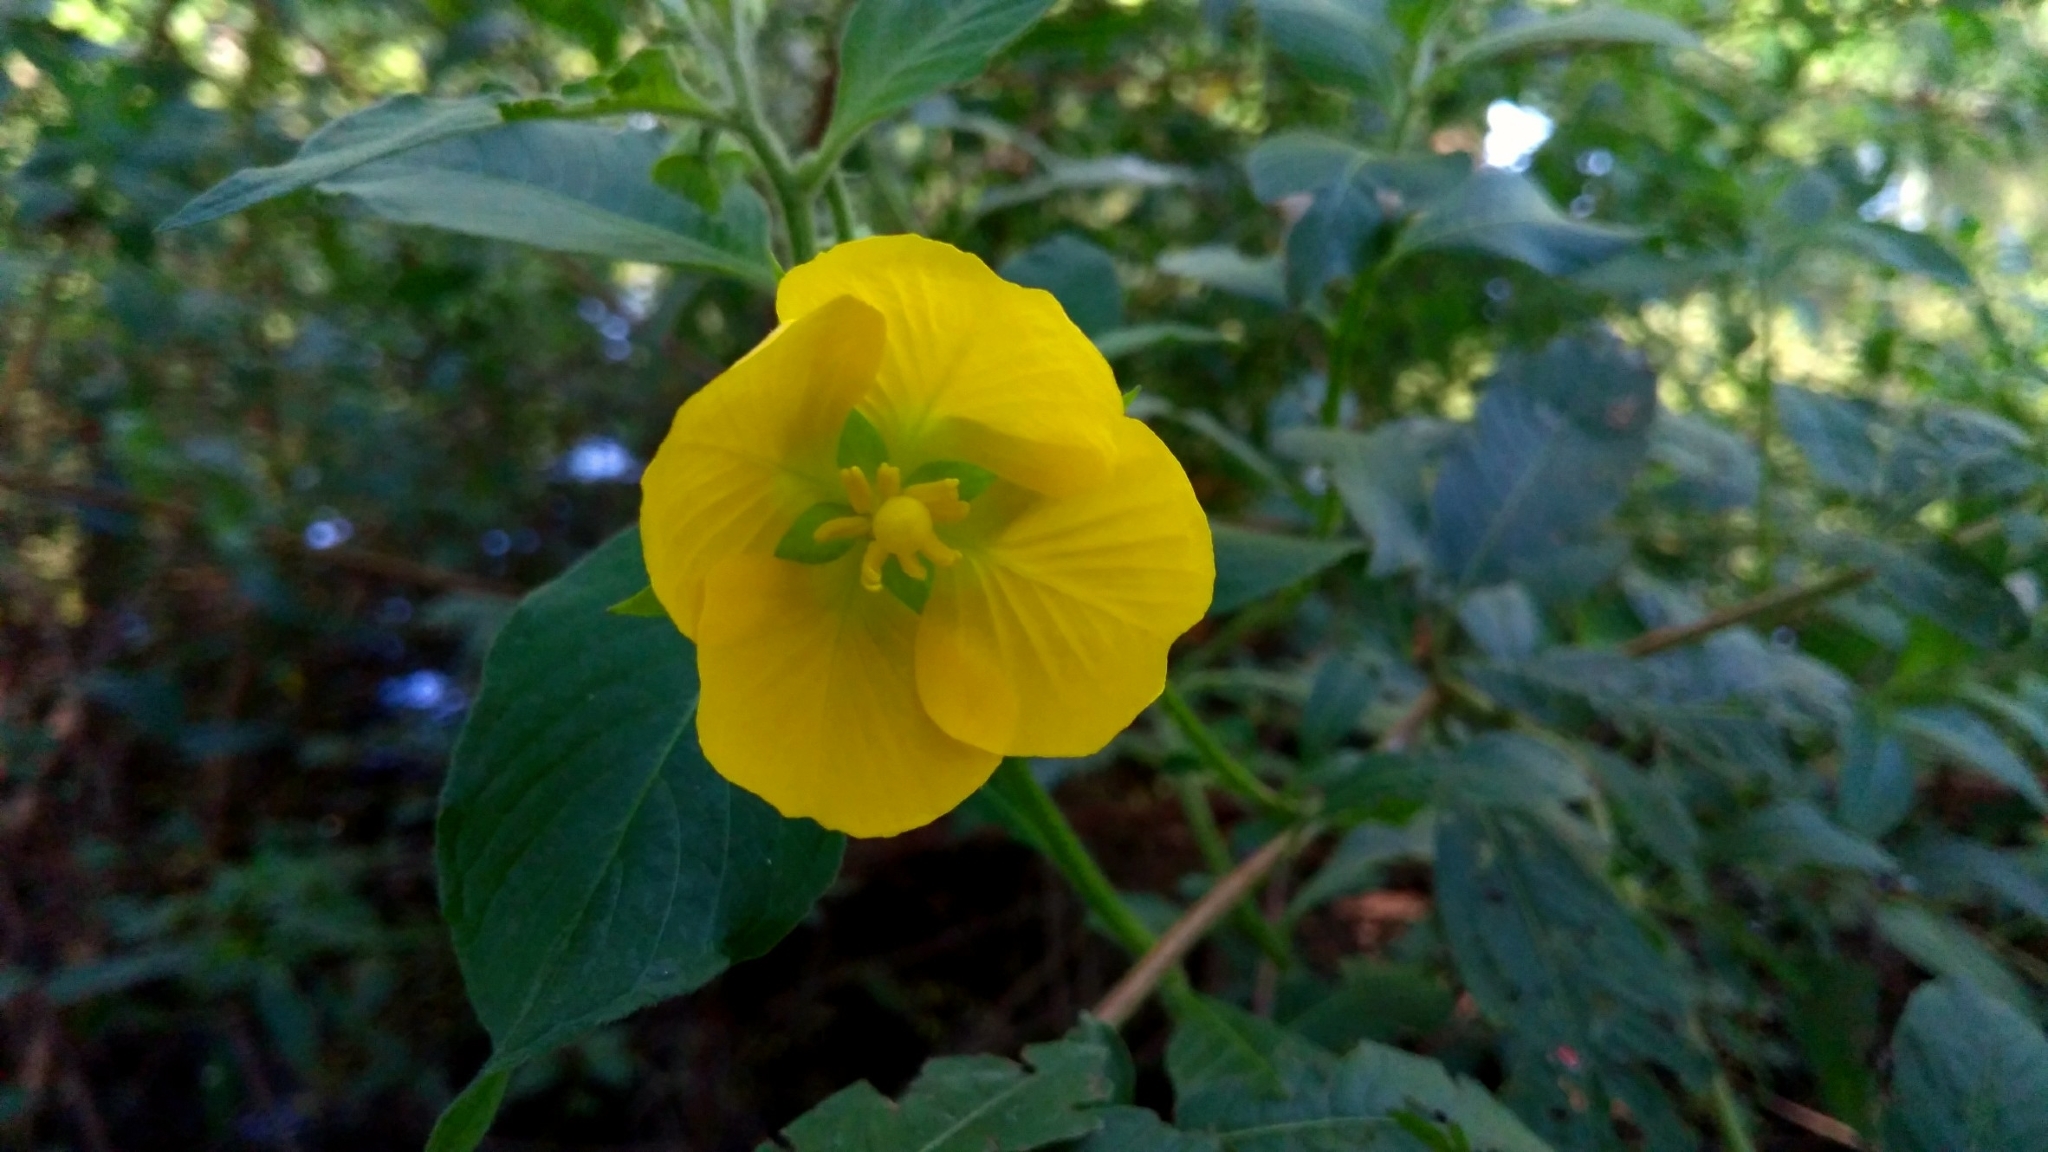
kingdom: Plantae
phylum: Tracheophyta
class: Magnoliopsida
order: Myrtales
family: Onagraceae
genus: Ludwigia
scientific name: Ludwigia octovalvis
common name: Water-primrose
